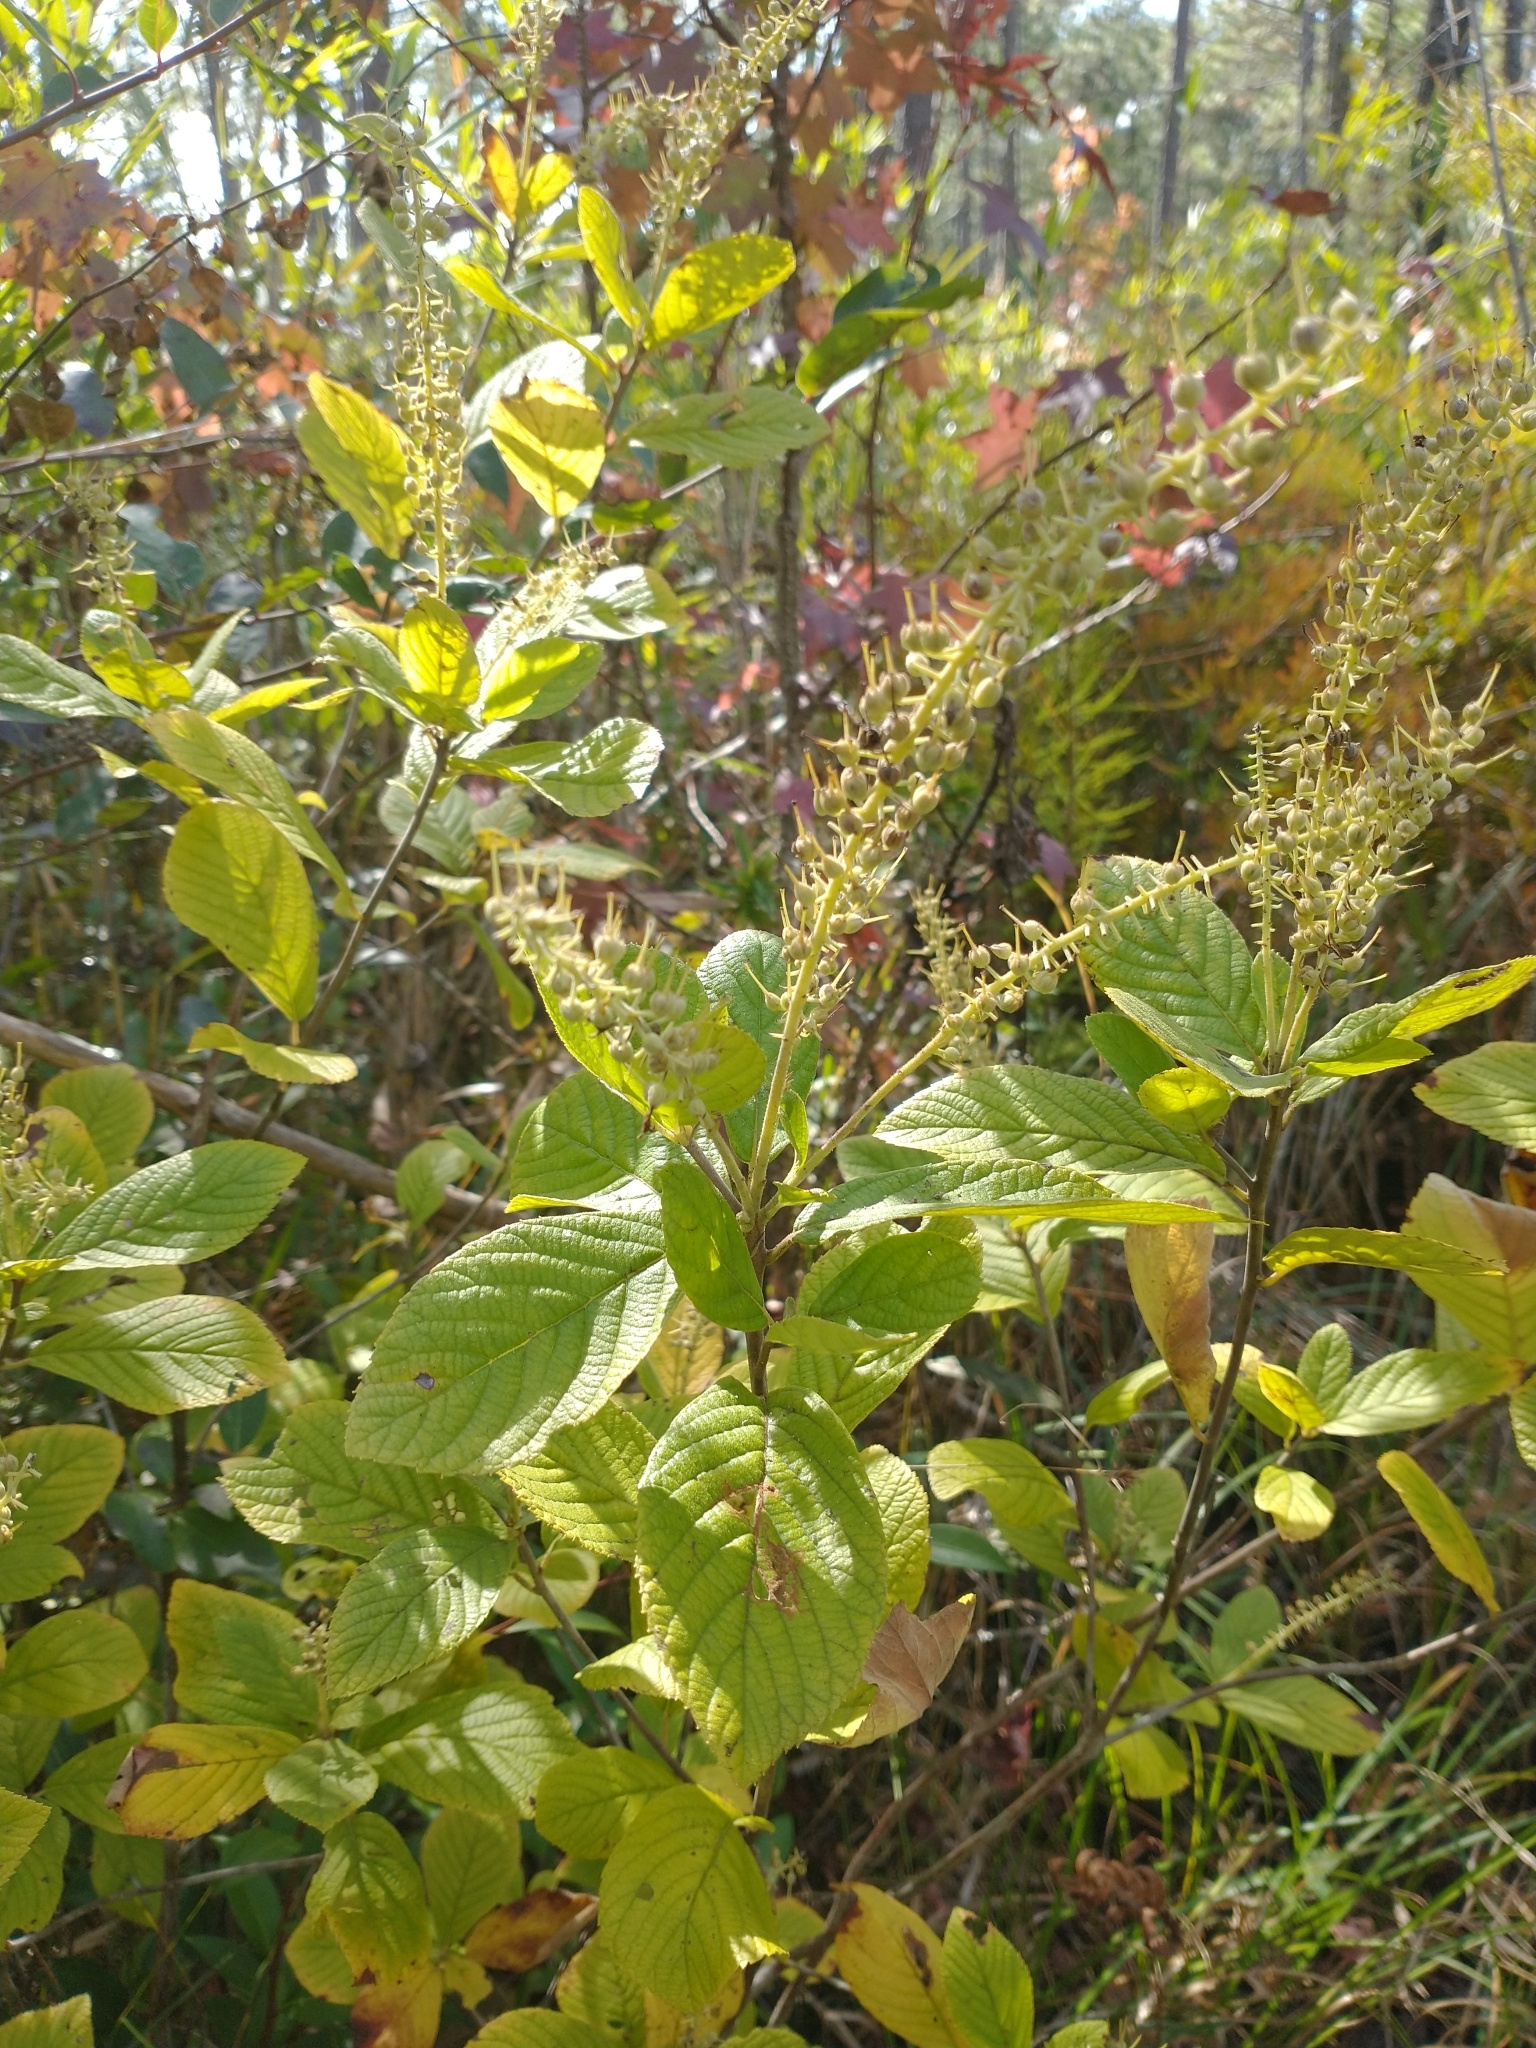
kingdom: Plantae
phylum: Tracheophyta
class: Magnoliopsida
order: Ericales
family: Clethraceae
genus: Clethra
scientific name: Clethra alnifolia
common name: Sweet pepperbush
